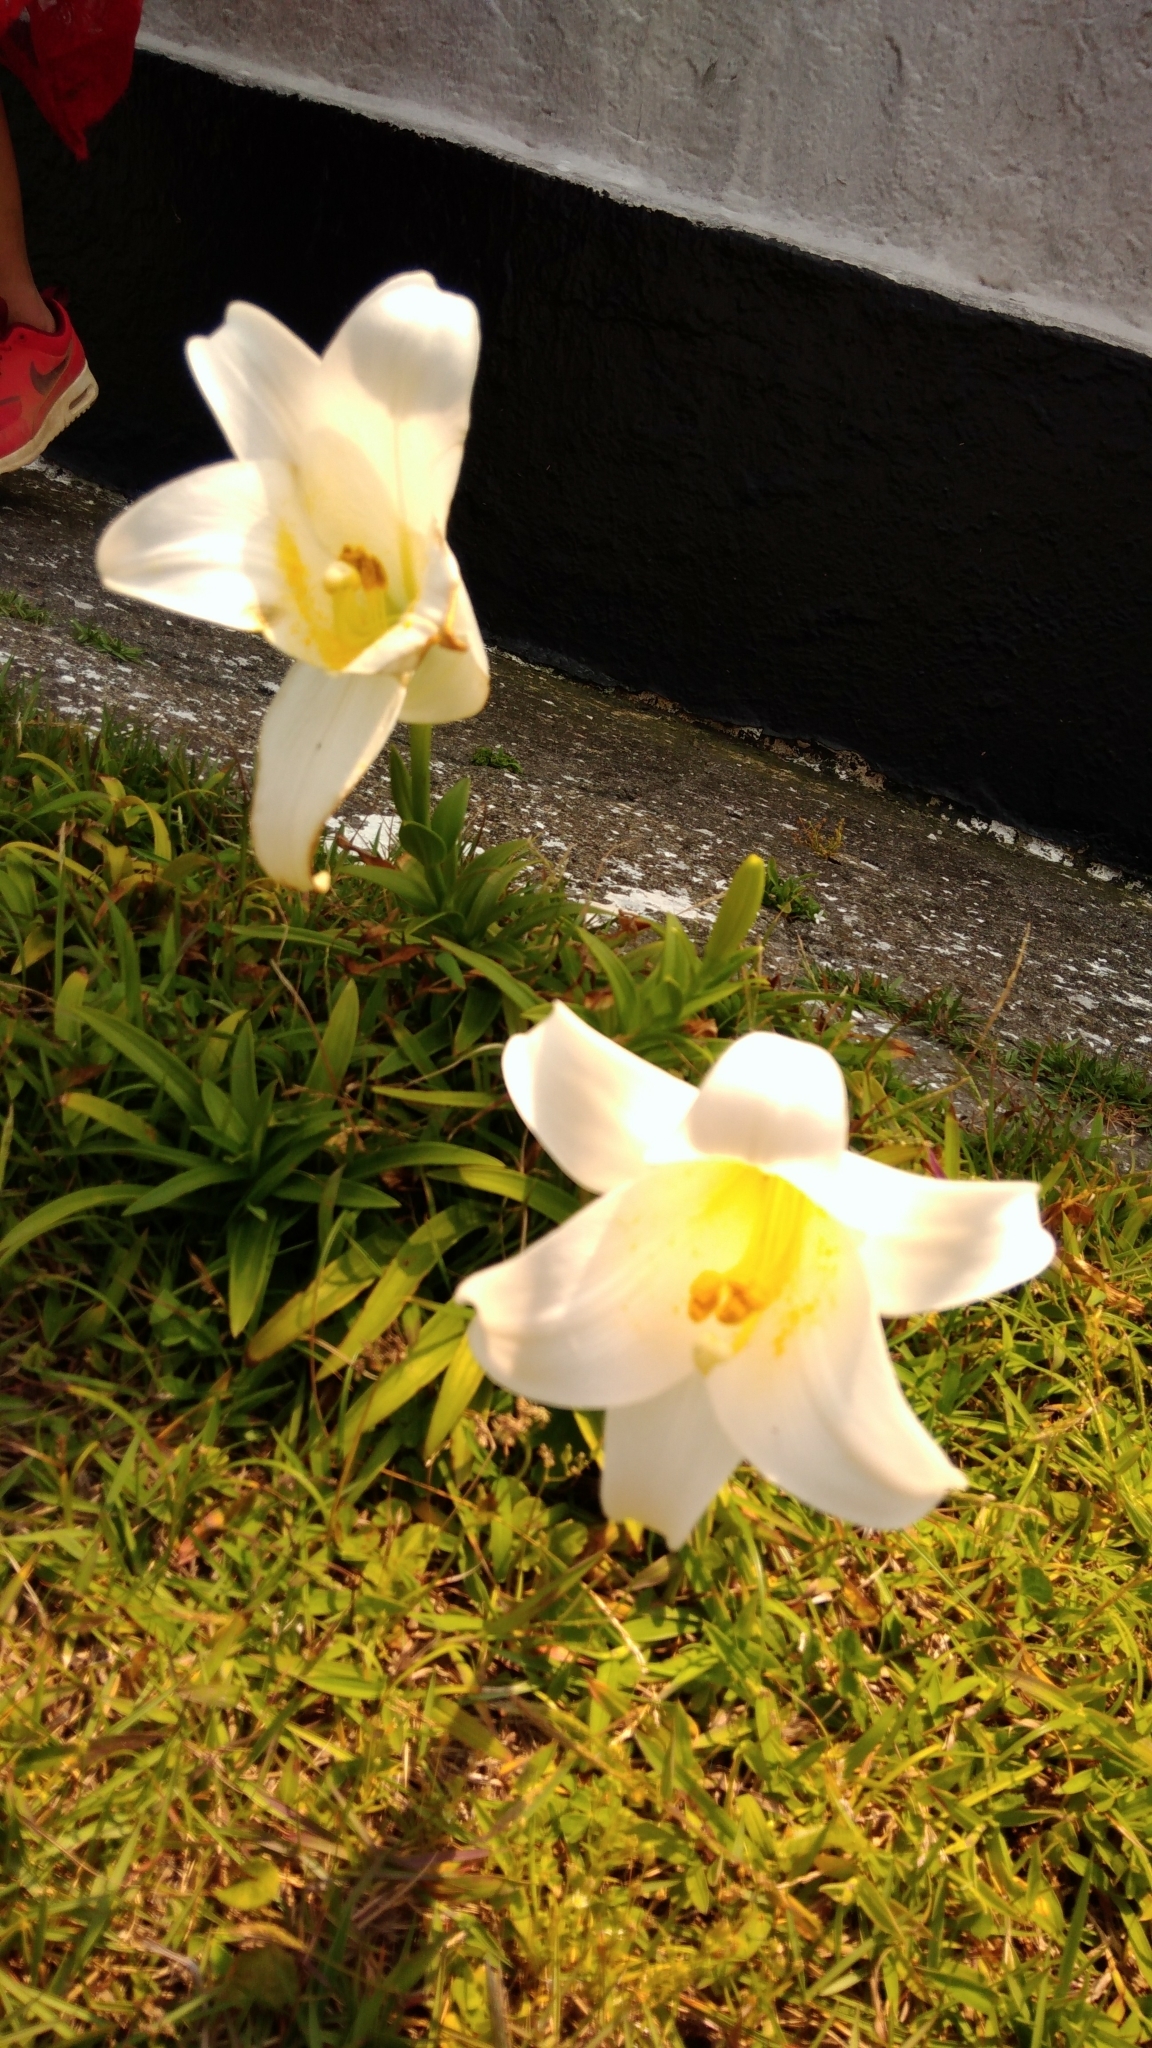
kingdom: Plantae
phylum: Tracheophyta
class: Liliopsida
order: Liliales
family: Liliaceae
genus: Lilium
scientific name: Lilium longiflorum
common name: Easter lily
